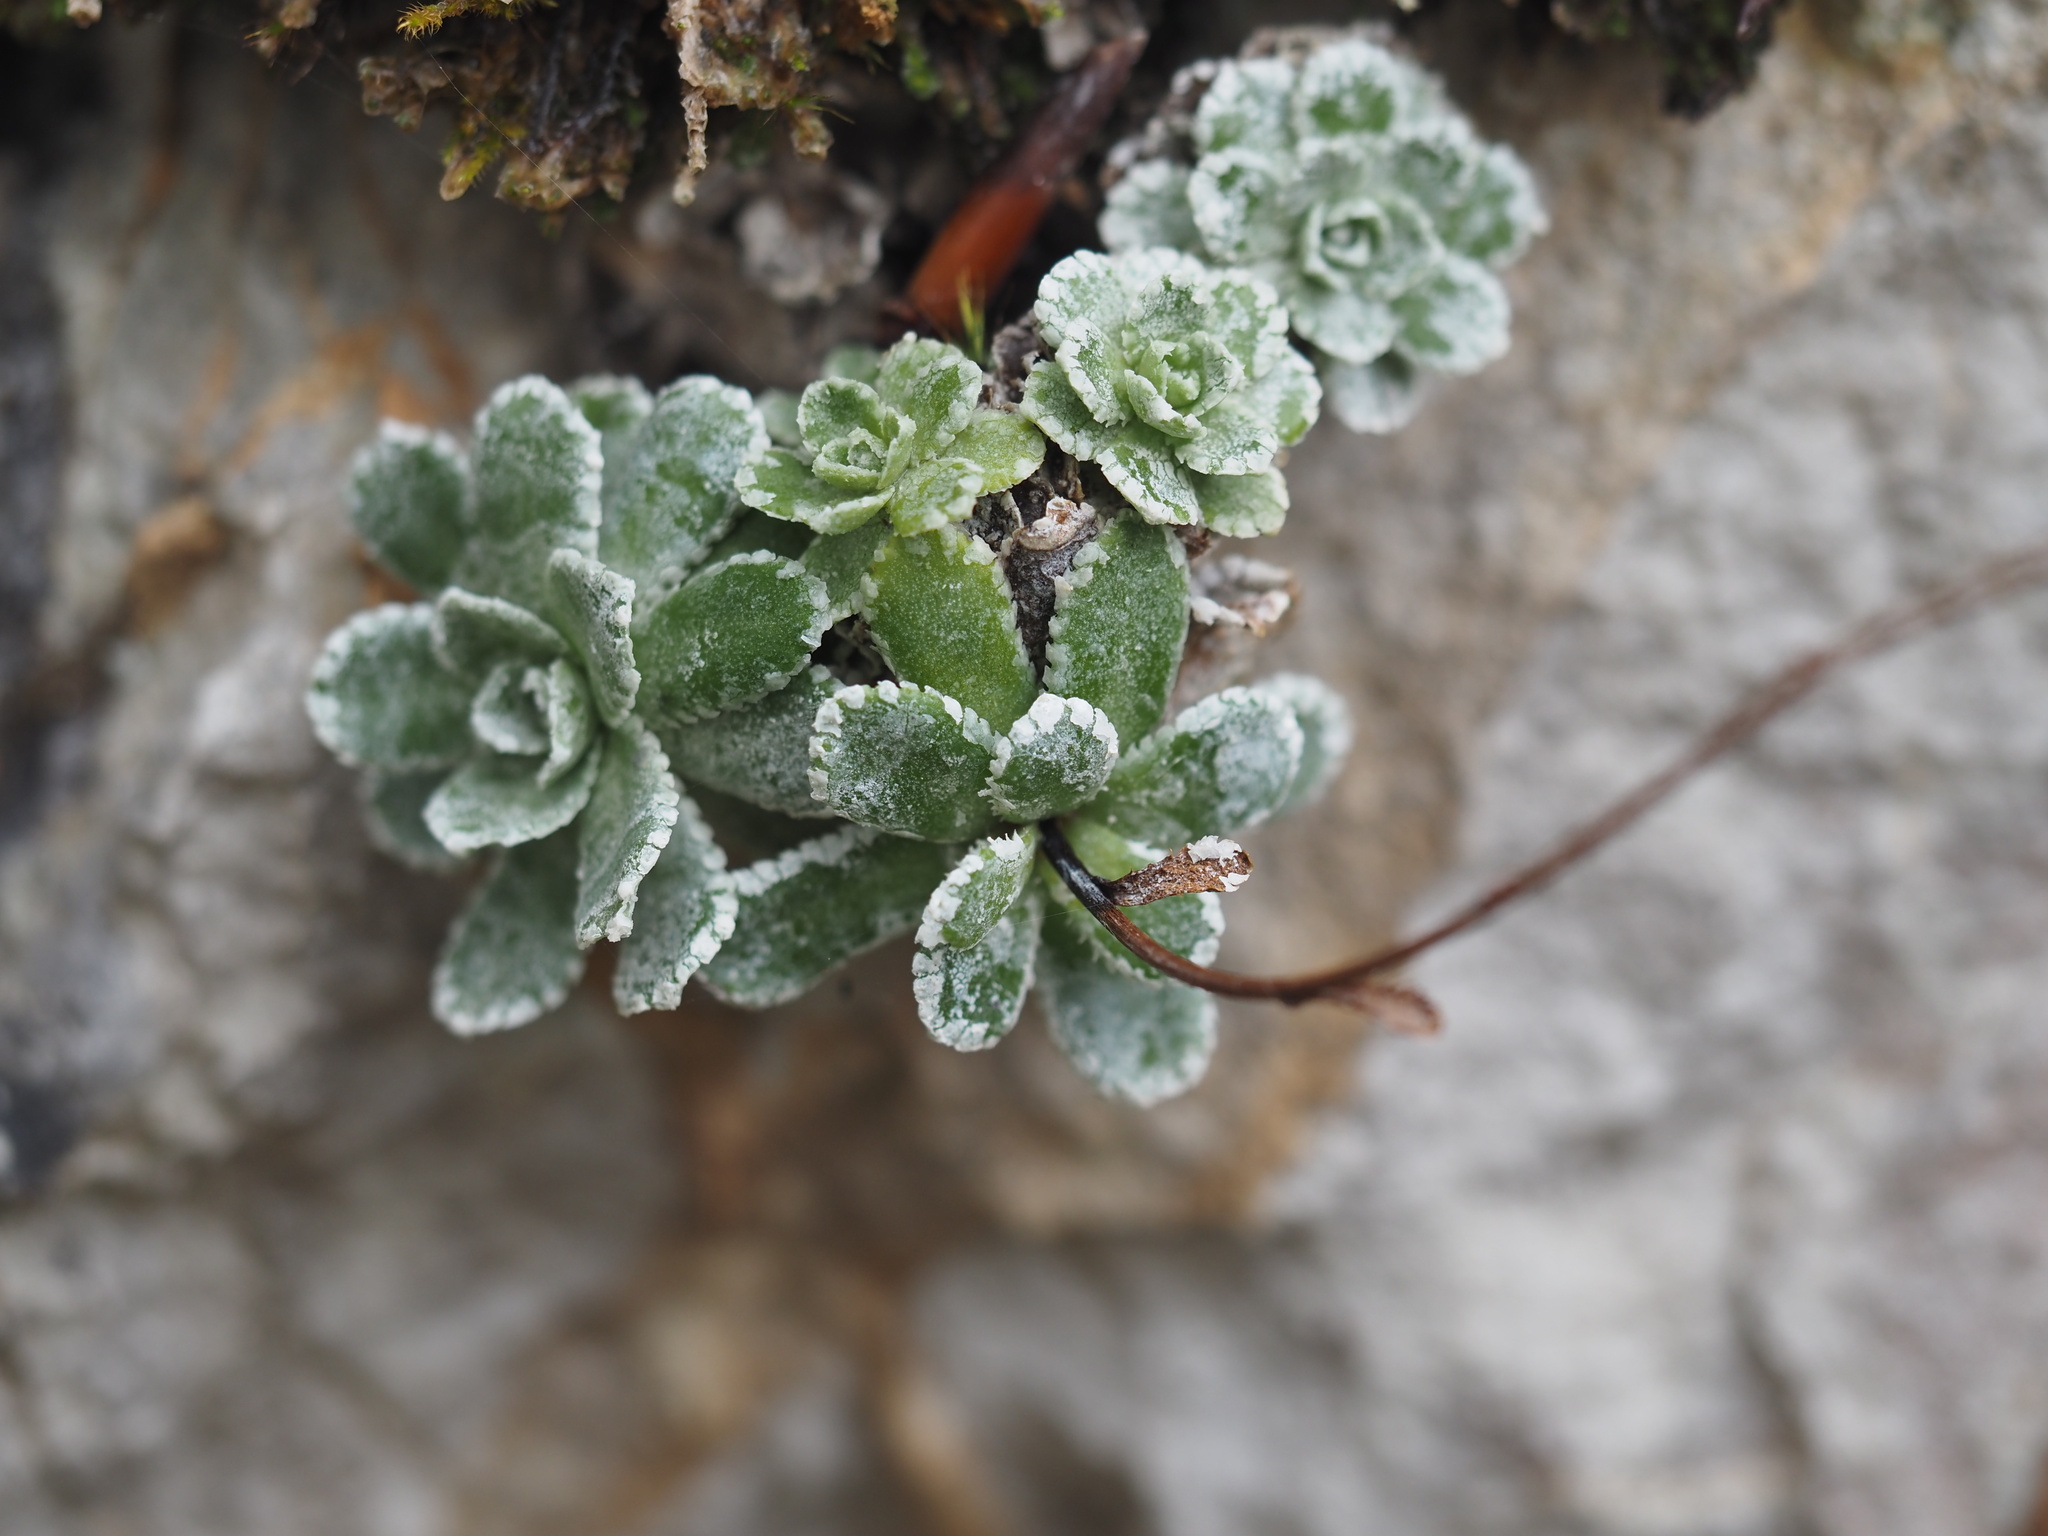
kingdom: Plantae
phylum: Tracheophyta
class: Magnoliopsida
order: Saxifragales
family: Saxifragaceae
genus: Saxifraga
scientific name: Saxifraga paniculata
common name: Livelong saxifrage
